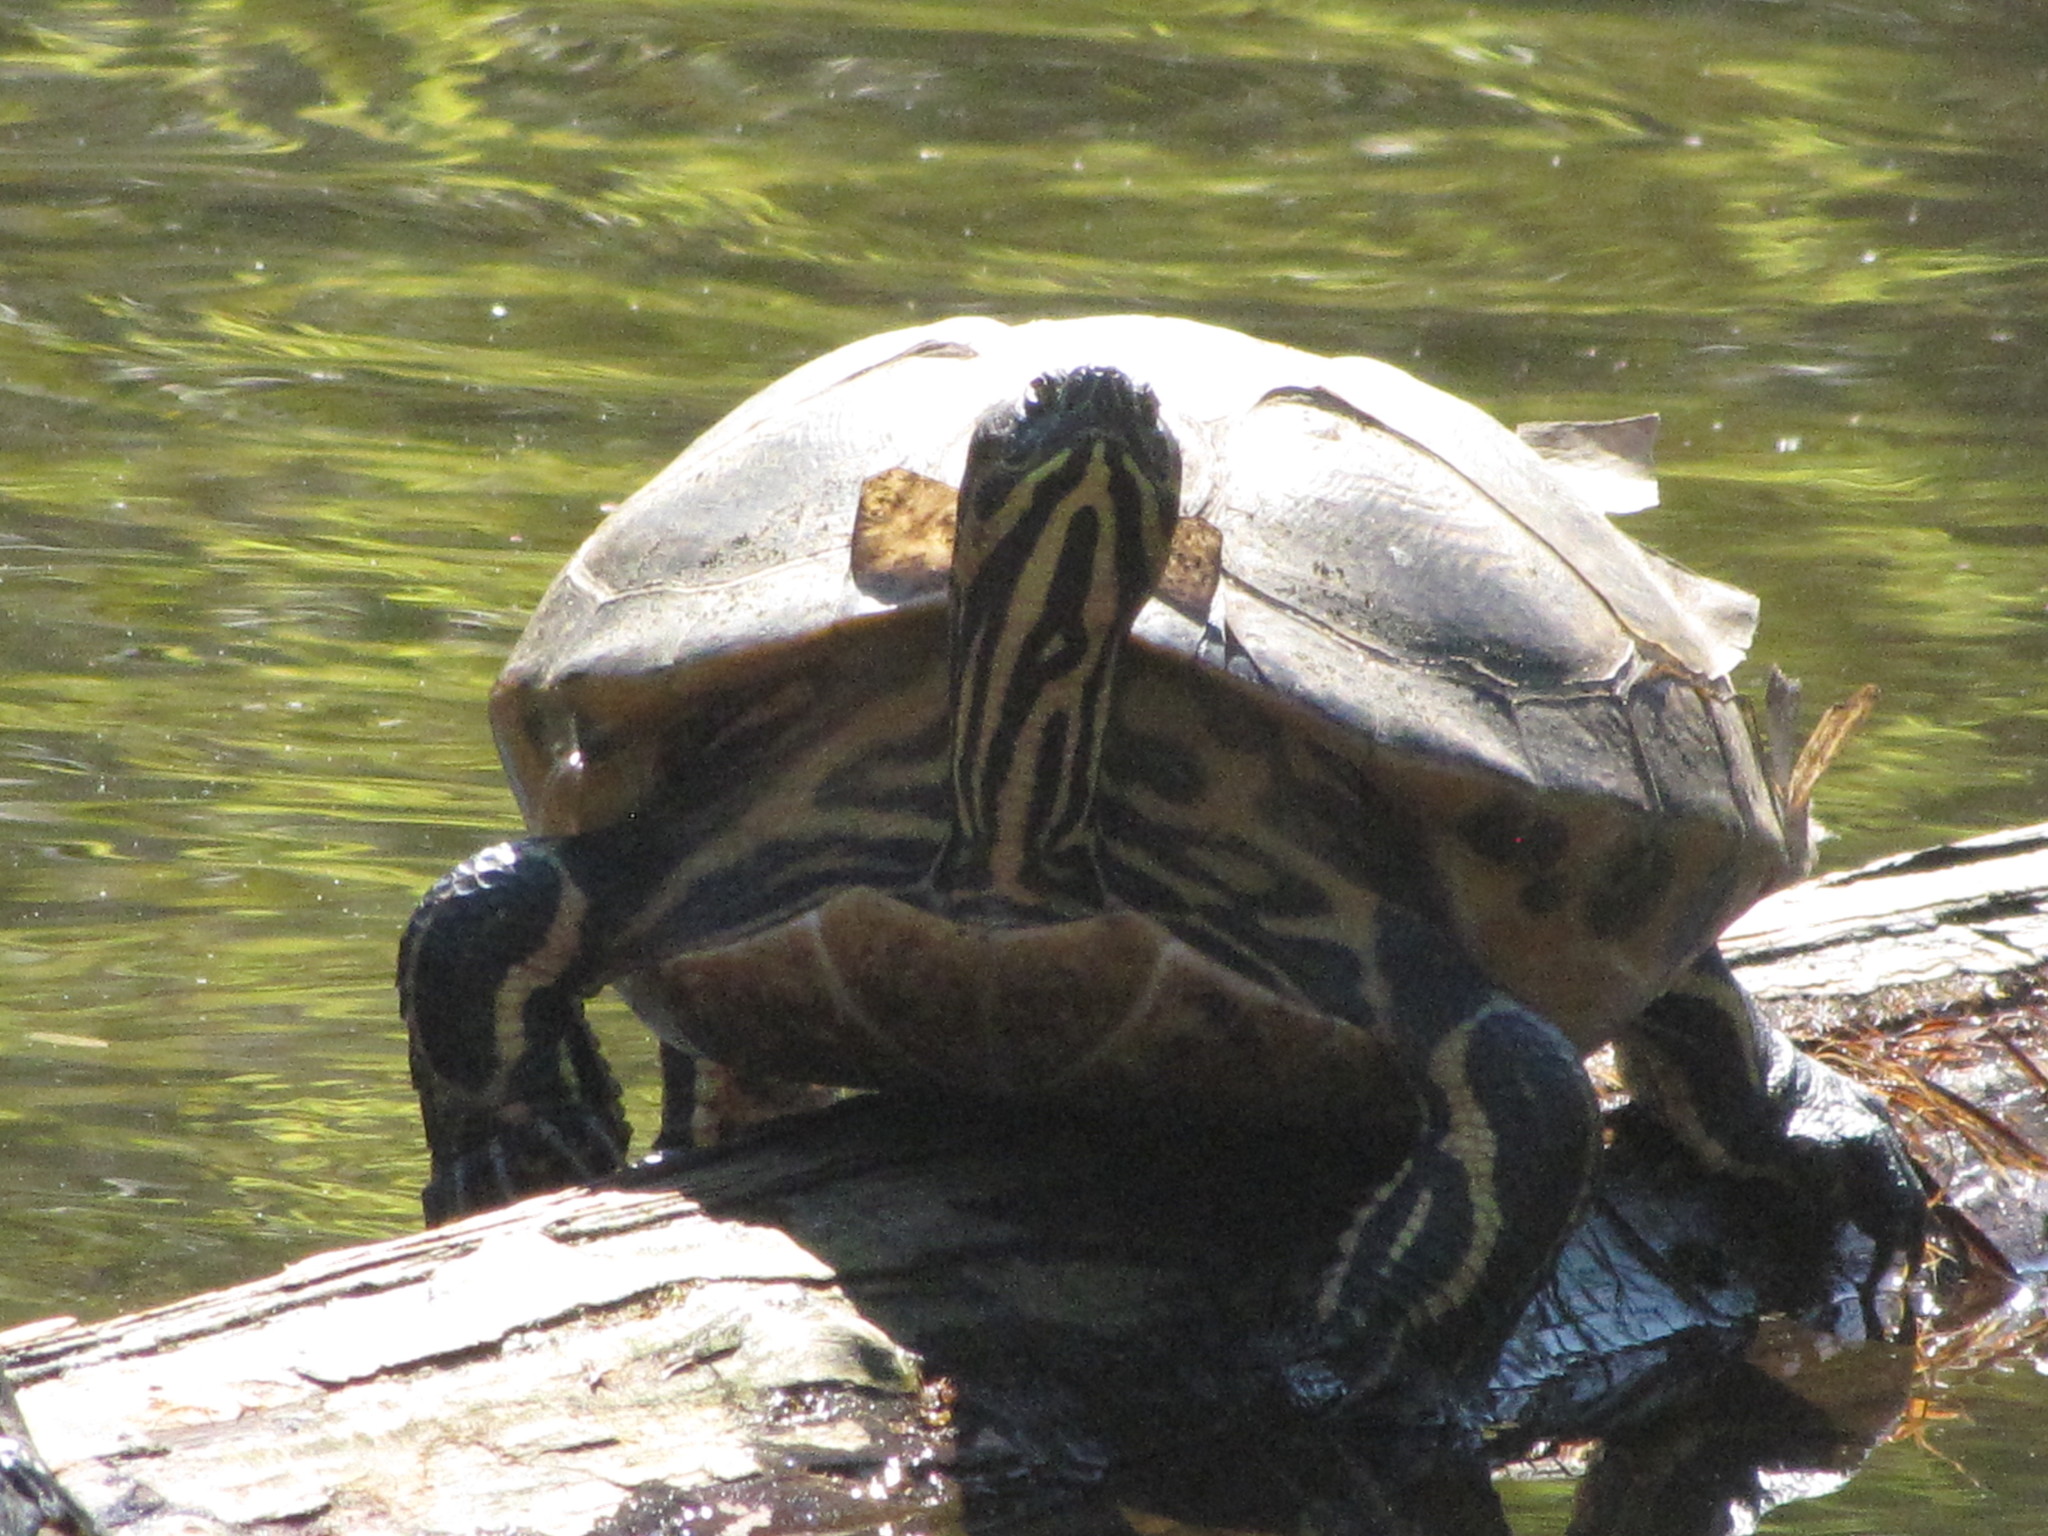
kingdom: Animalia
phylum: Chordata
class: Testudines
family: Emydidae
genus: Trachemys
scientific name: Trachemys scripta
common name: Slider
